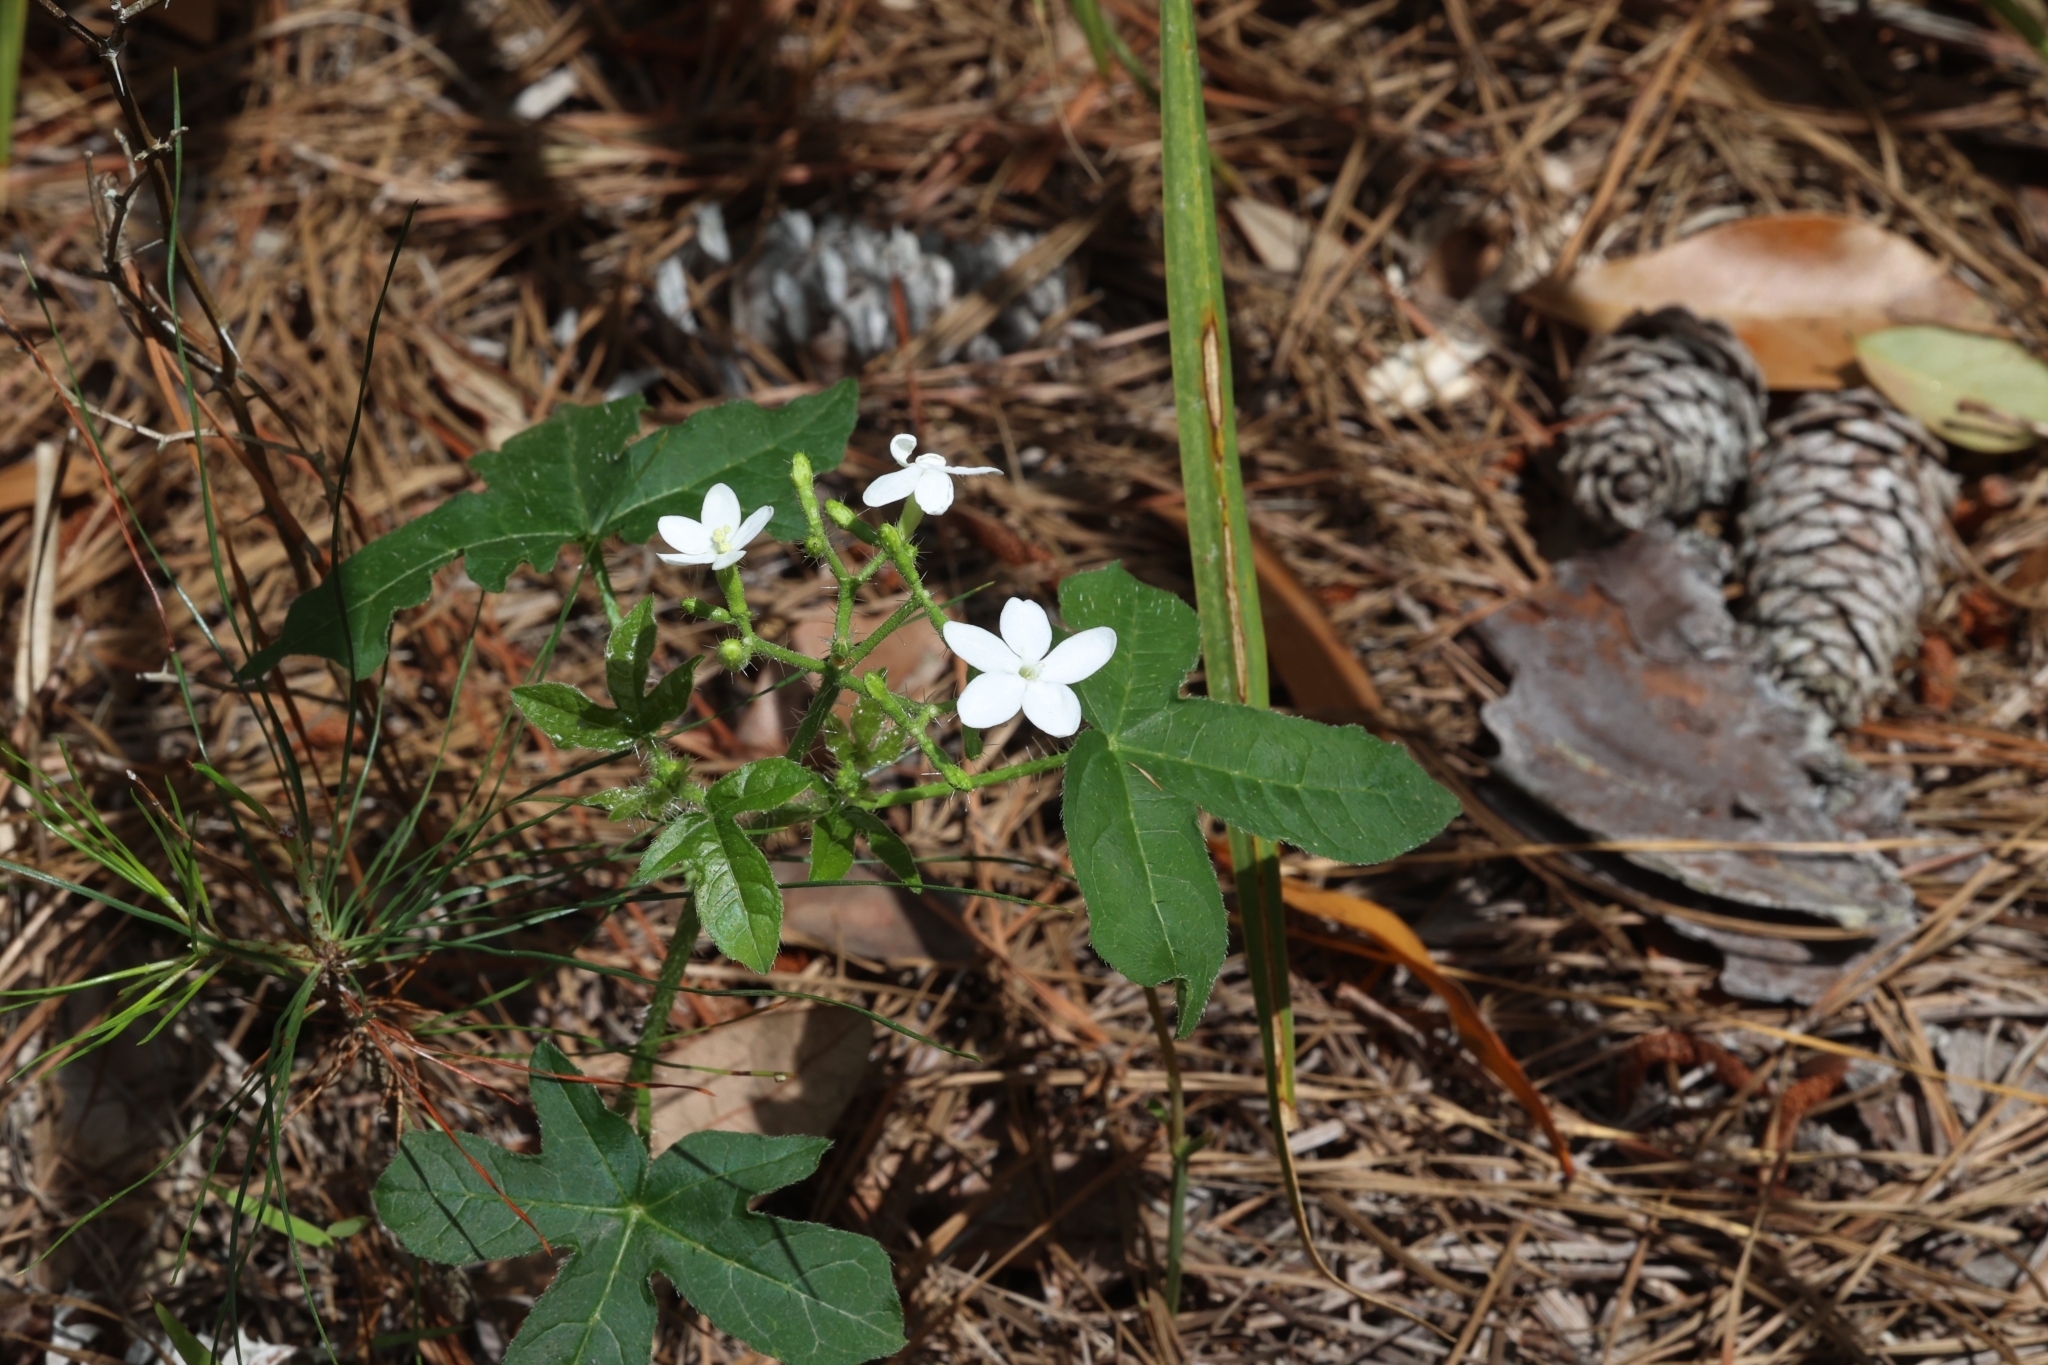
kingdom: Plantae
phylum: Tracheophyta
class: Magnoliopsida
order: Malpighiales
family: Euphorbiaceae
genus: Cnidoscolus
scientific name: Cnidoscolus stimulosus
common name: Bull-nettle
